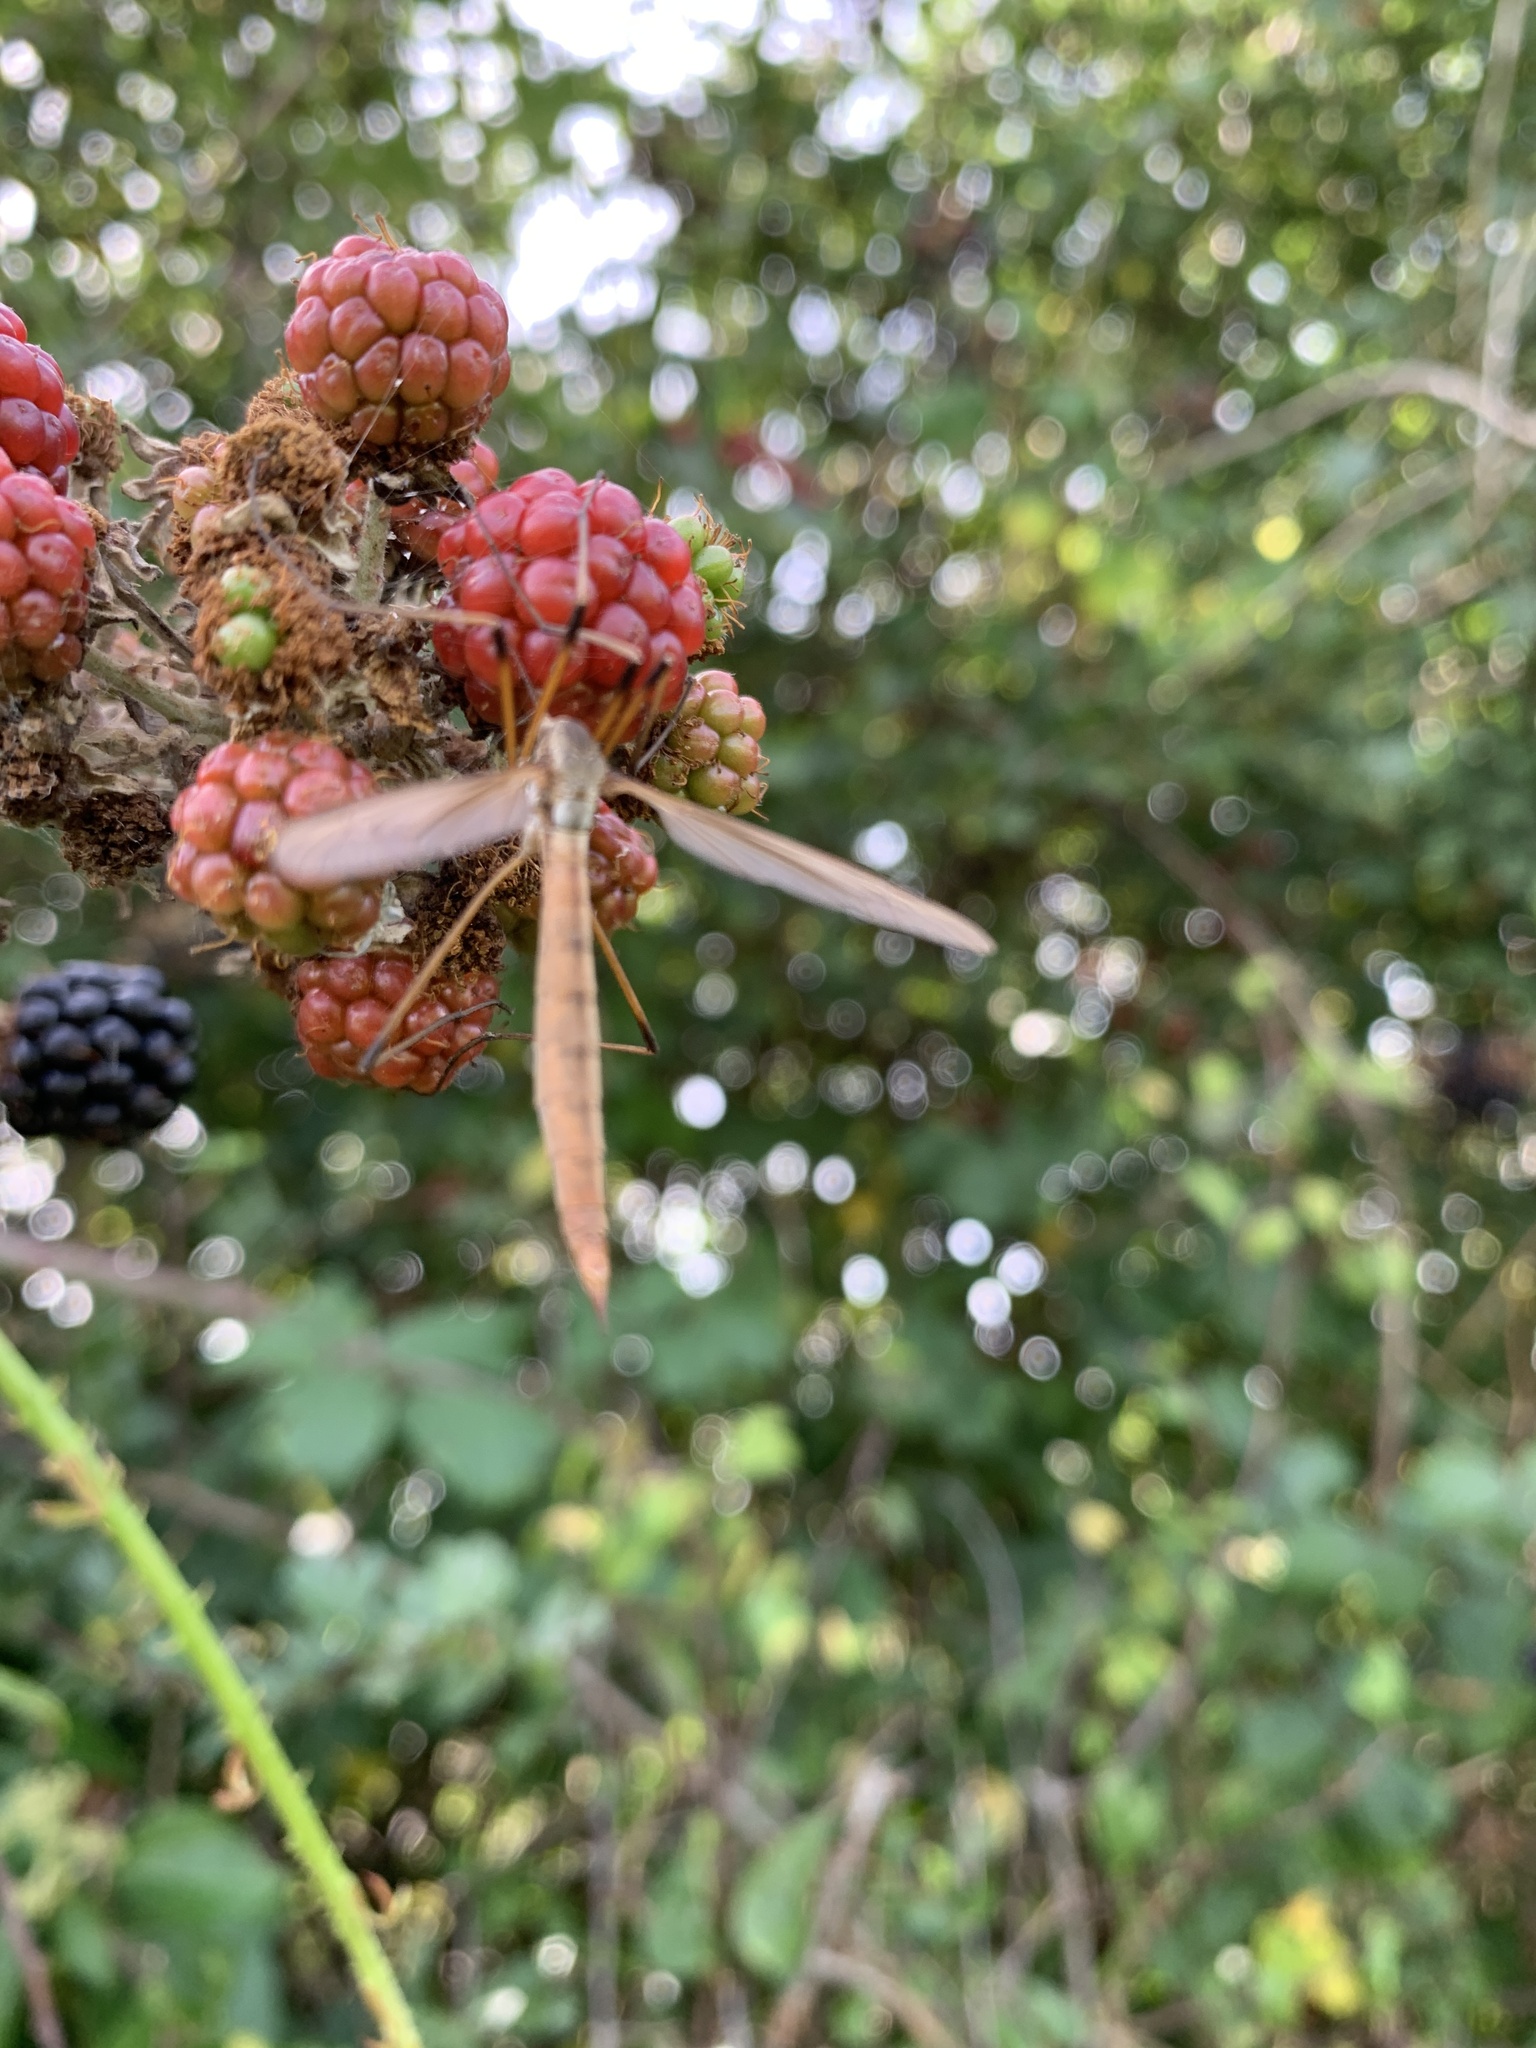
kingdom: Animalia
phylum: Arthropoda
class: Insecta
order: Diptera
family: Tipulidae
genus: Tipula
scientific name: Tipula paludosa
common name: European cranefly
